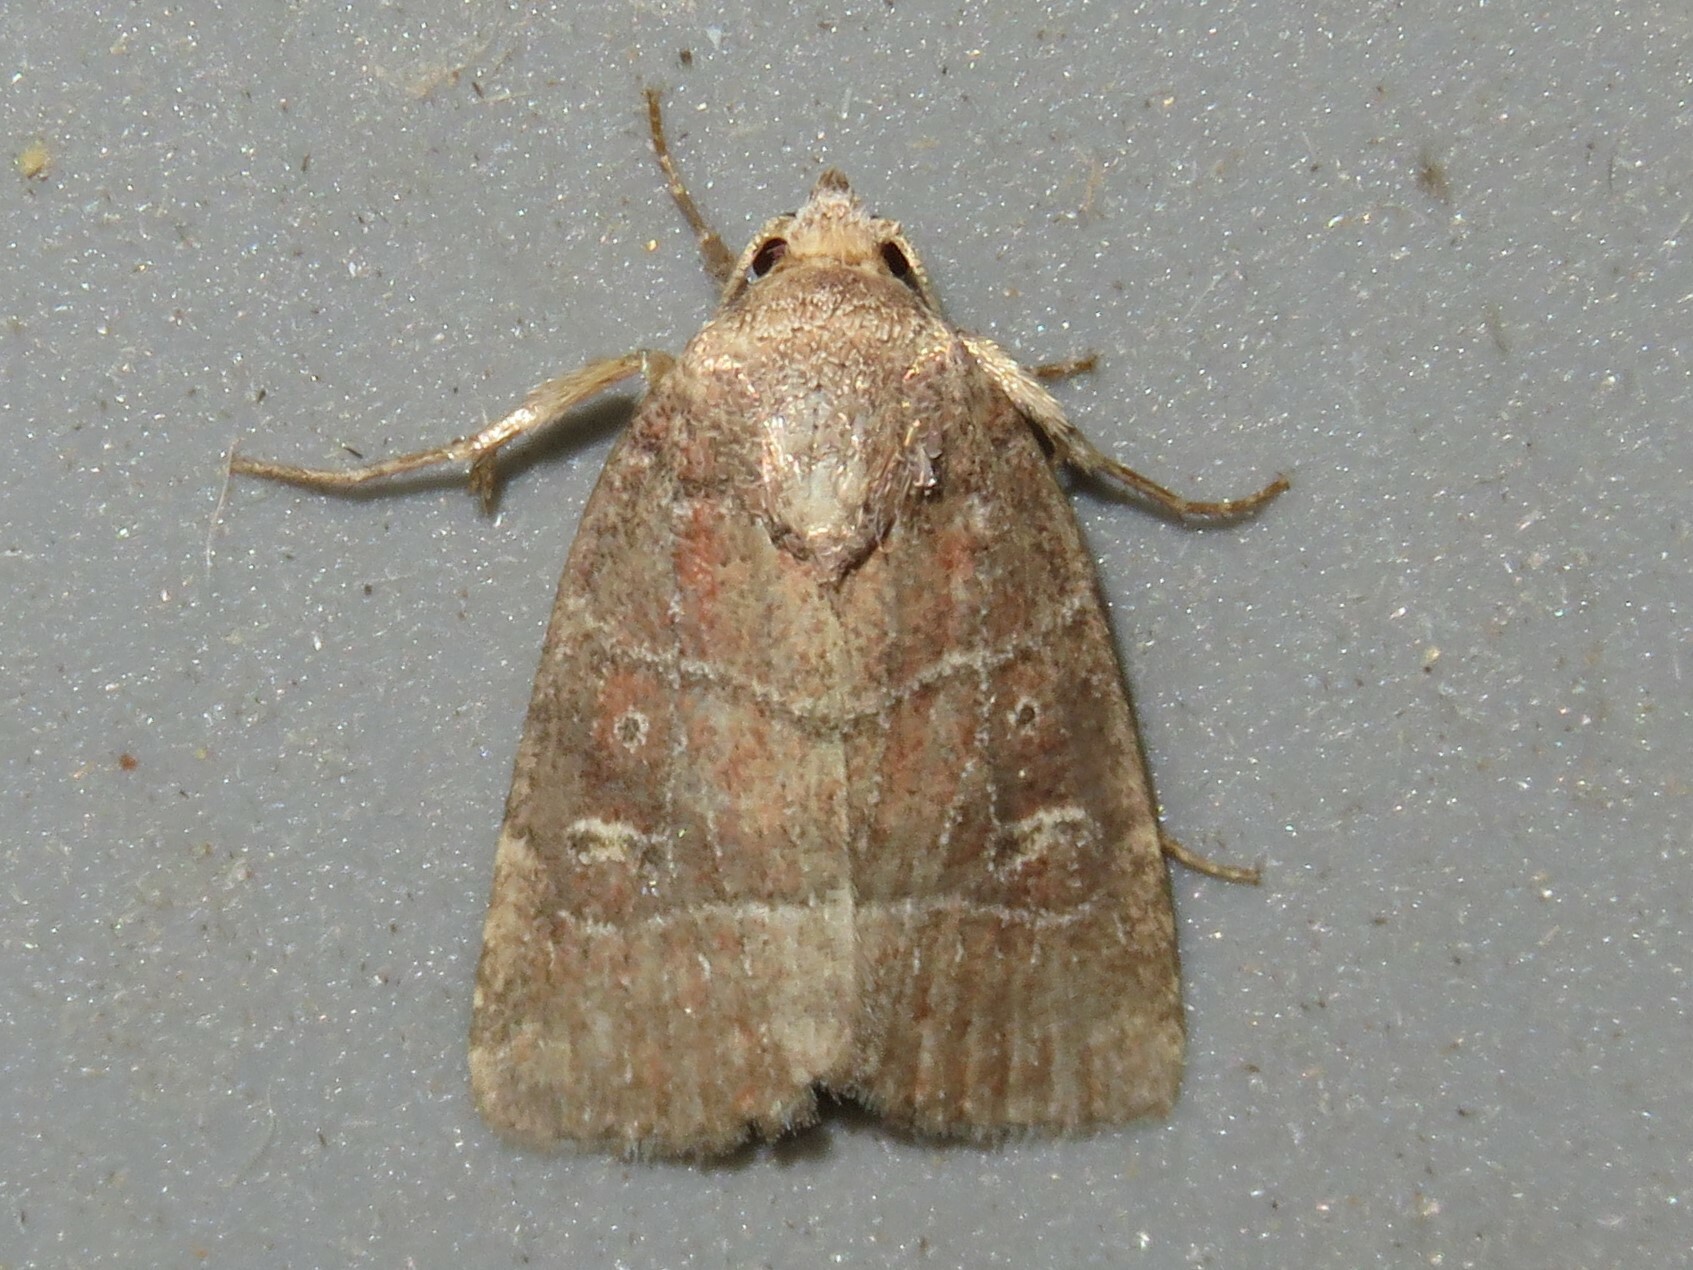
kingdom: Animalia
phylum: Arthropoda
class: Insecta
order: Lepidoptera
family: Noctuidae
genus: Elaphria
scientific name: Elaphria grata
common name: Grateful midget moth
